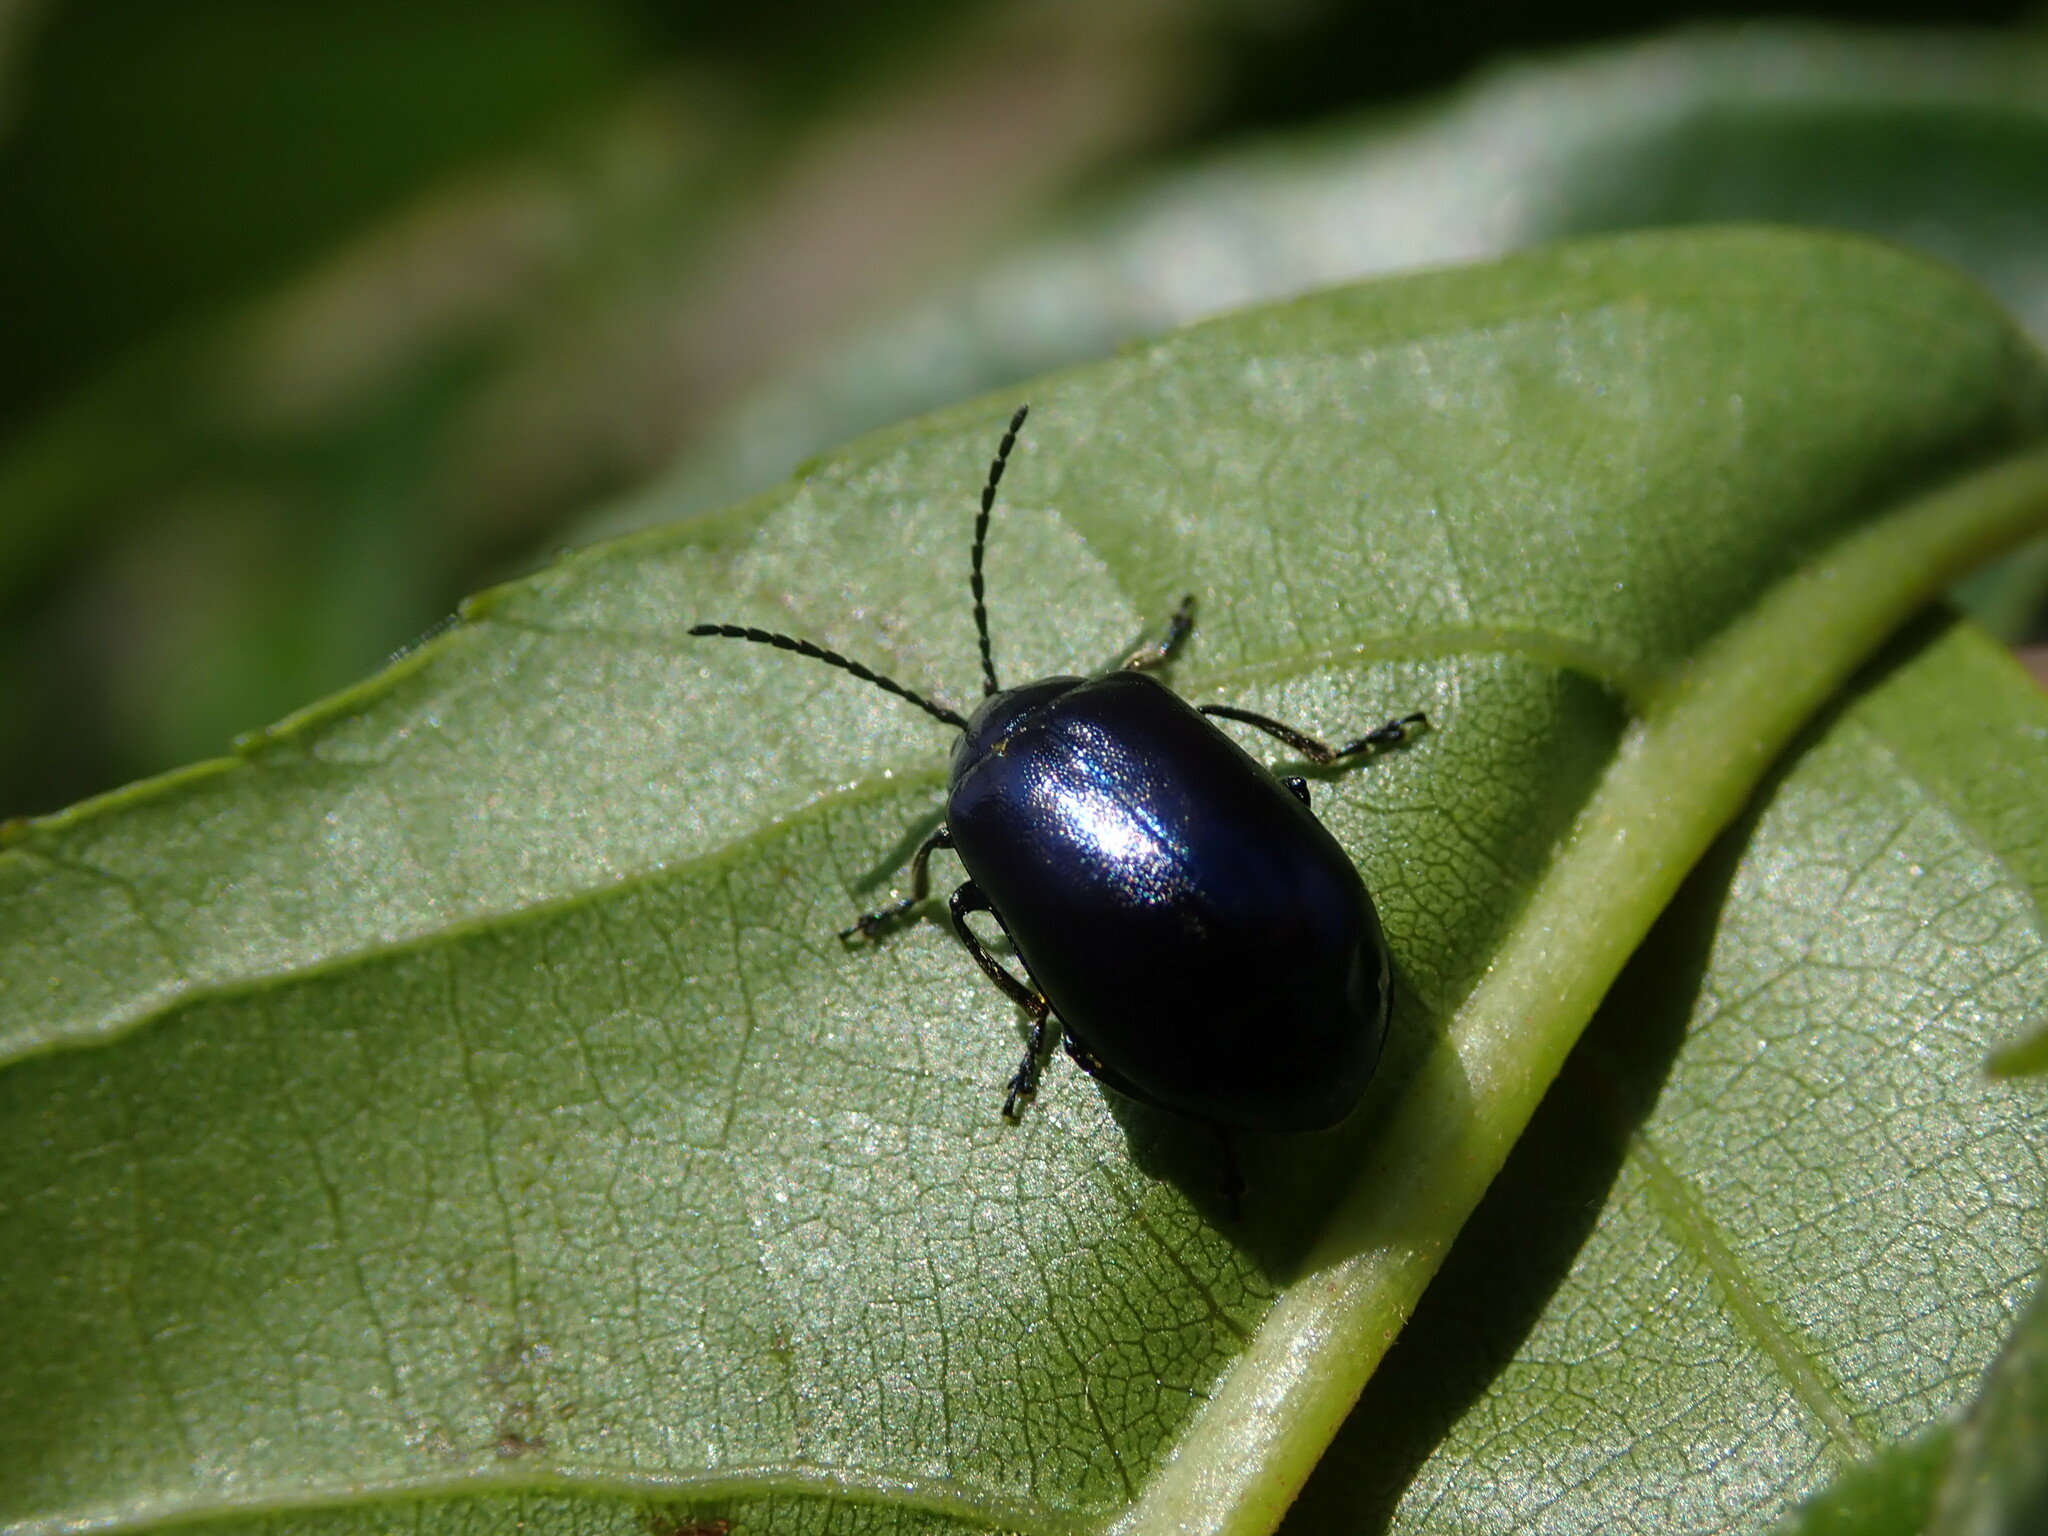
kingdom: Animalia
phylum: Arthropoda
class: Insecta
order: Coleoptera
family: Chrysomelidae
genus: Agelastica
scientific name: Agelastica alni
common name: Alder leaf beetle
